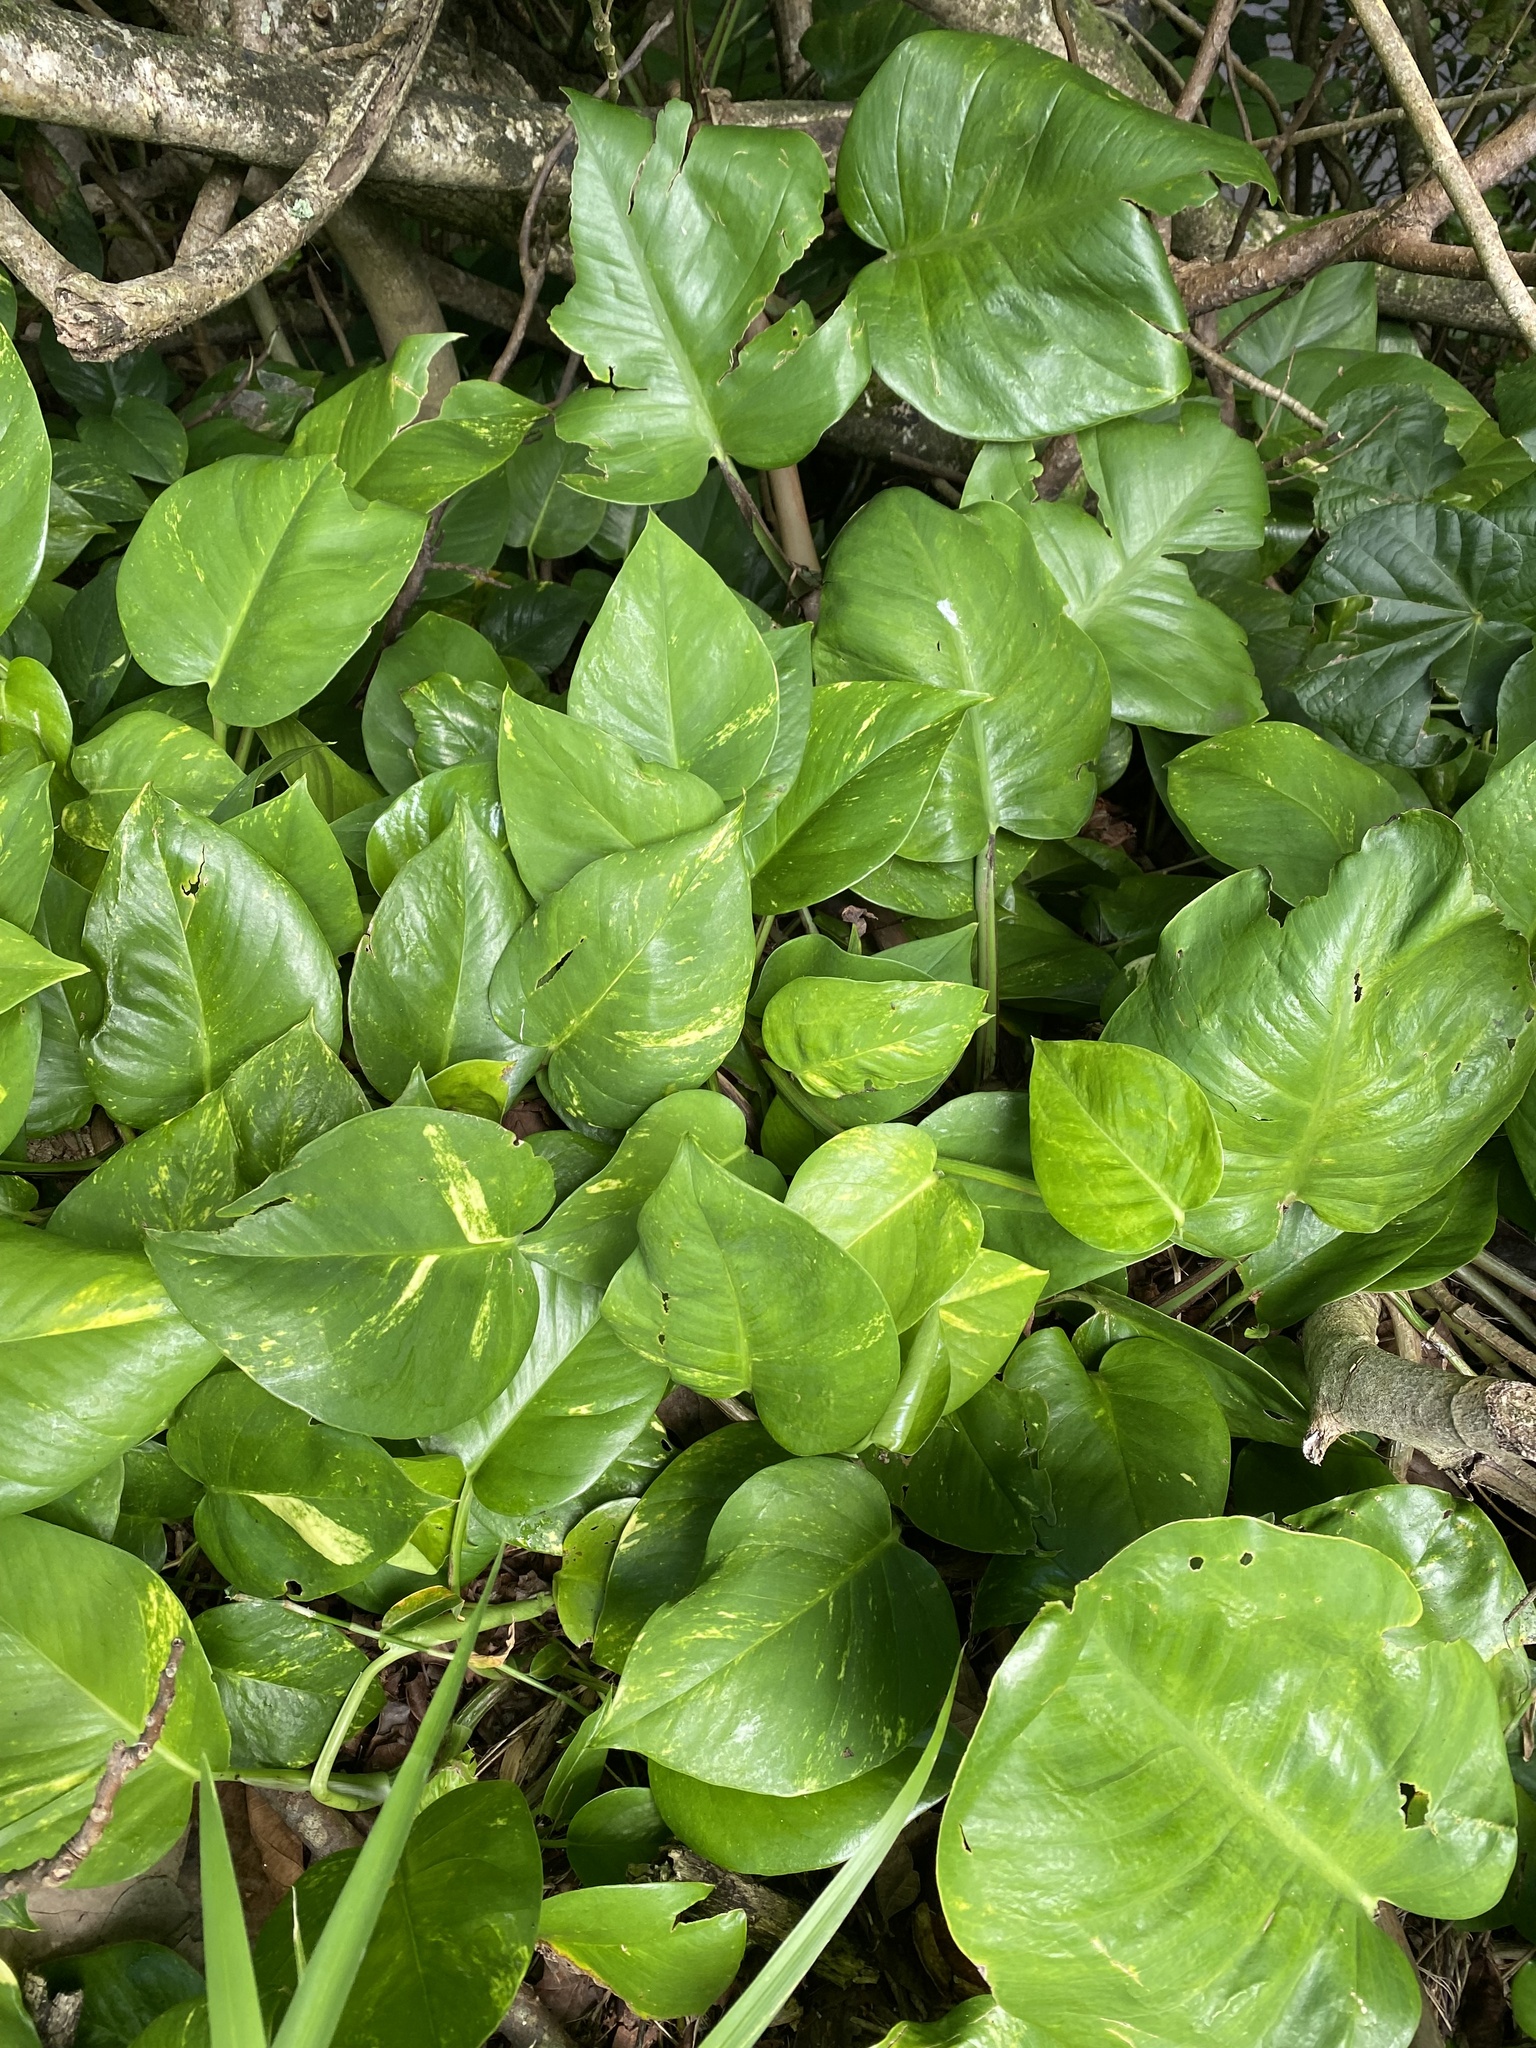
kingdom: Plantae
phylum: Tracheophyta
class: Liliopsida
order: Alismatales
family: Araceae
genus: Epipremnum
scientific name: Epipremnum aureum
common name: Golden hunter's-robe
